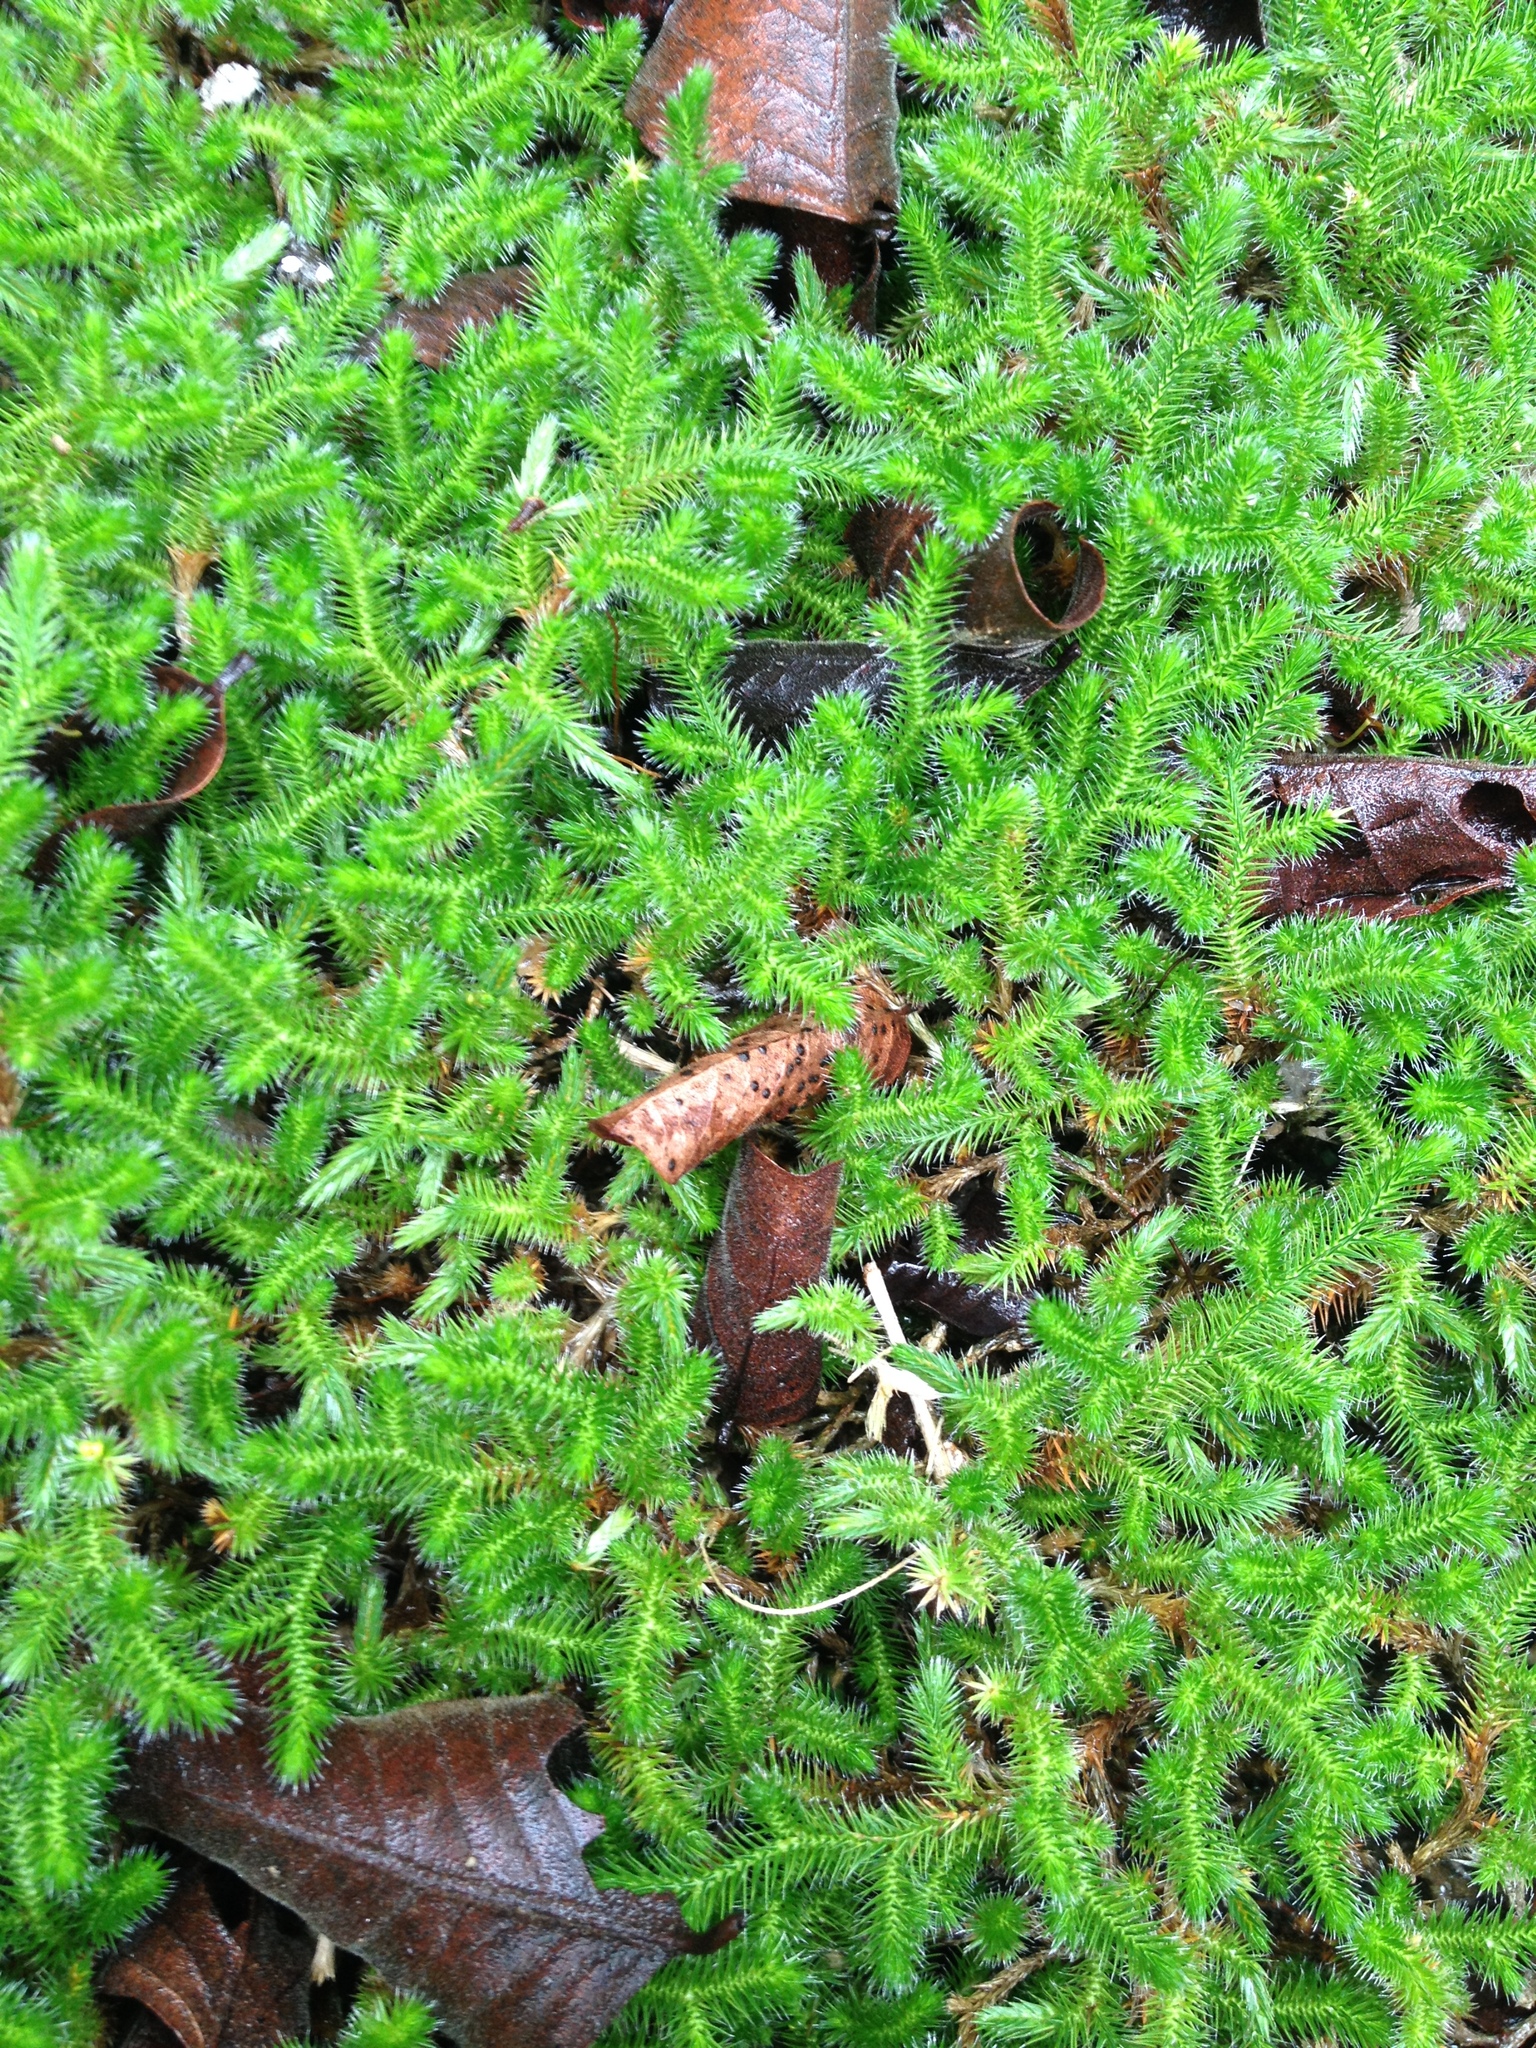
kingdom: Plantae
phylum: Tracheophyta
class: Lycopodiopsida
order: Selaginellales
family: Selaginellaceae
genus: Selaginella
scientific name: Selaginella sellowii
